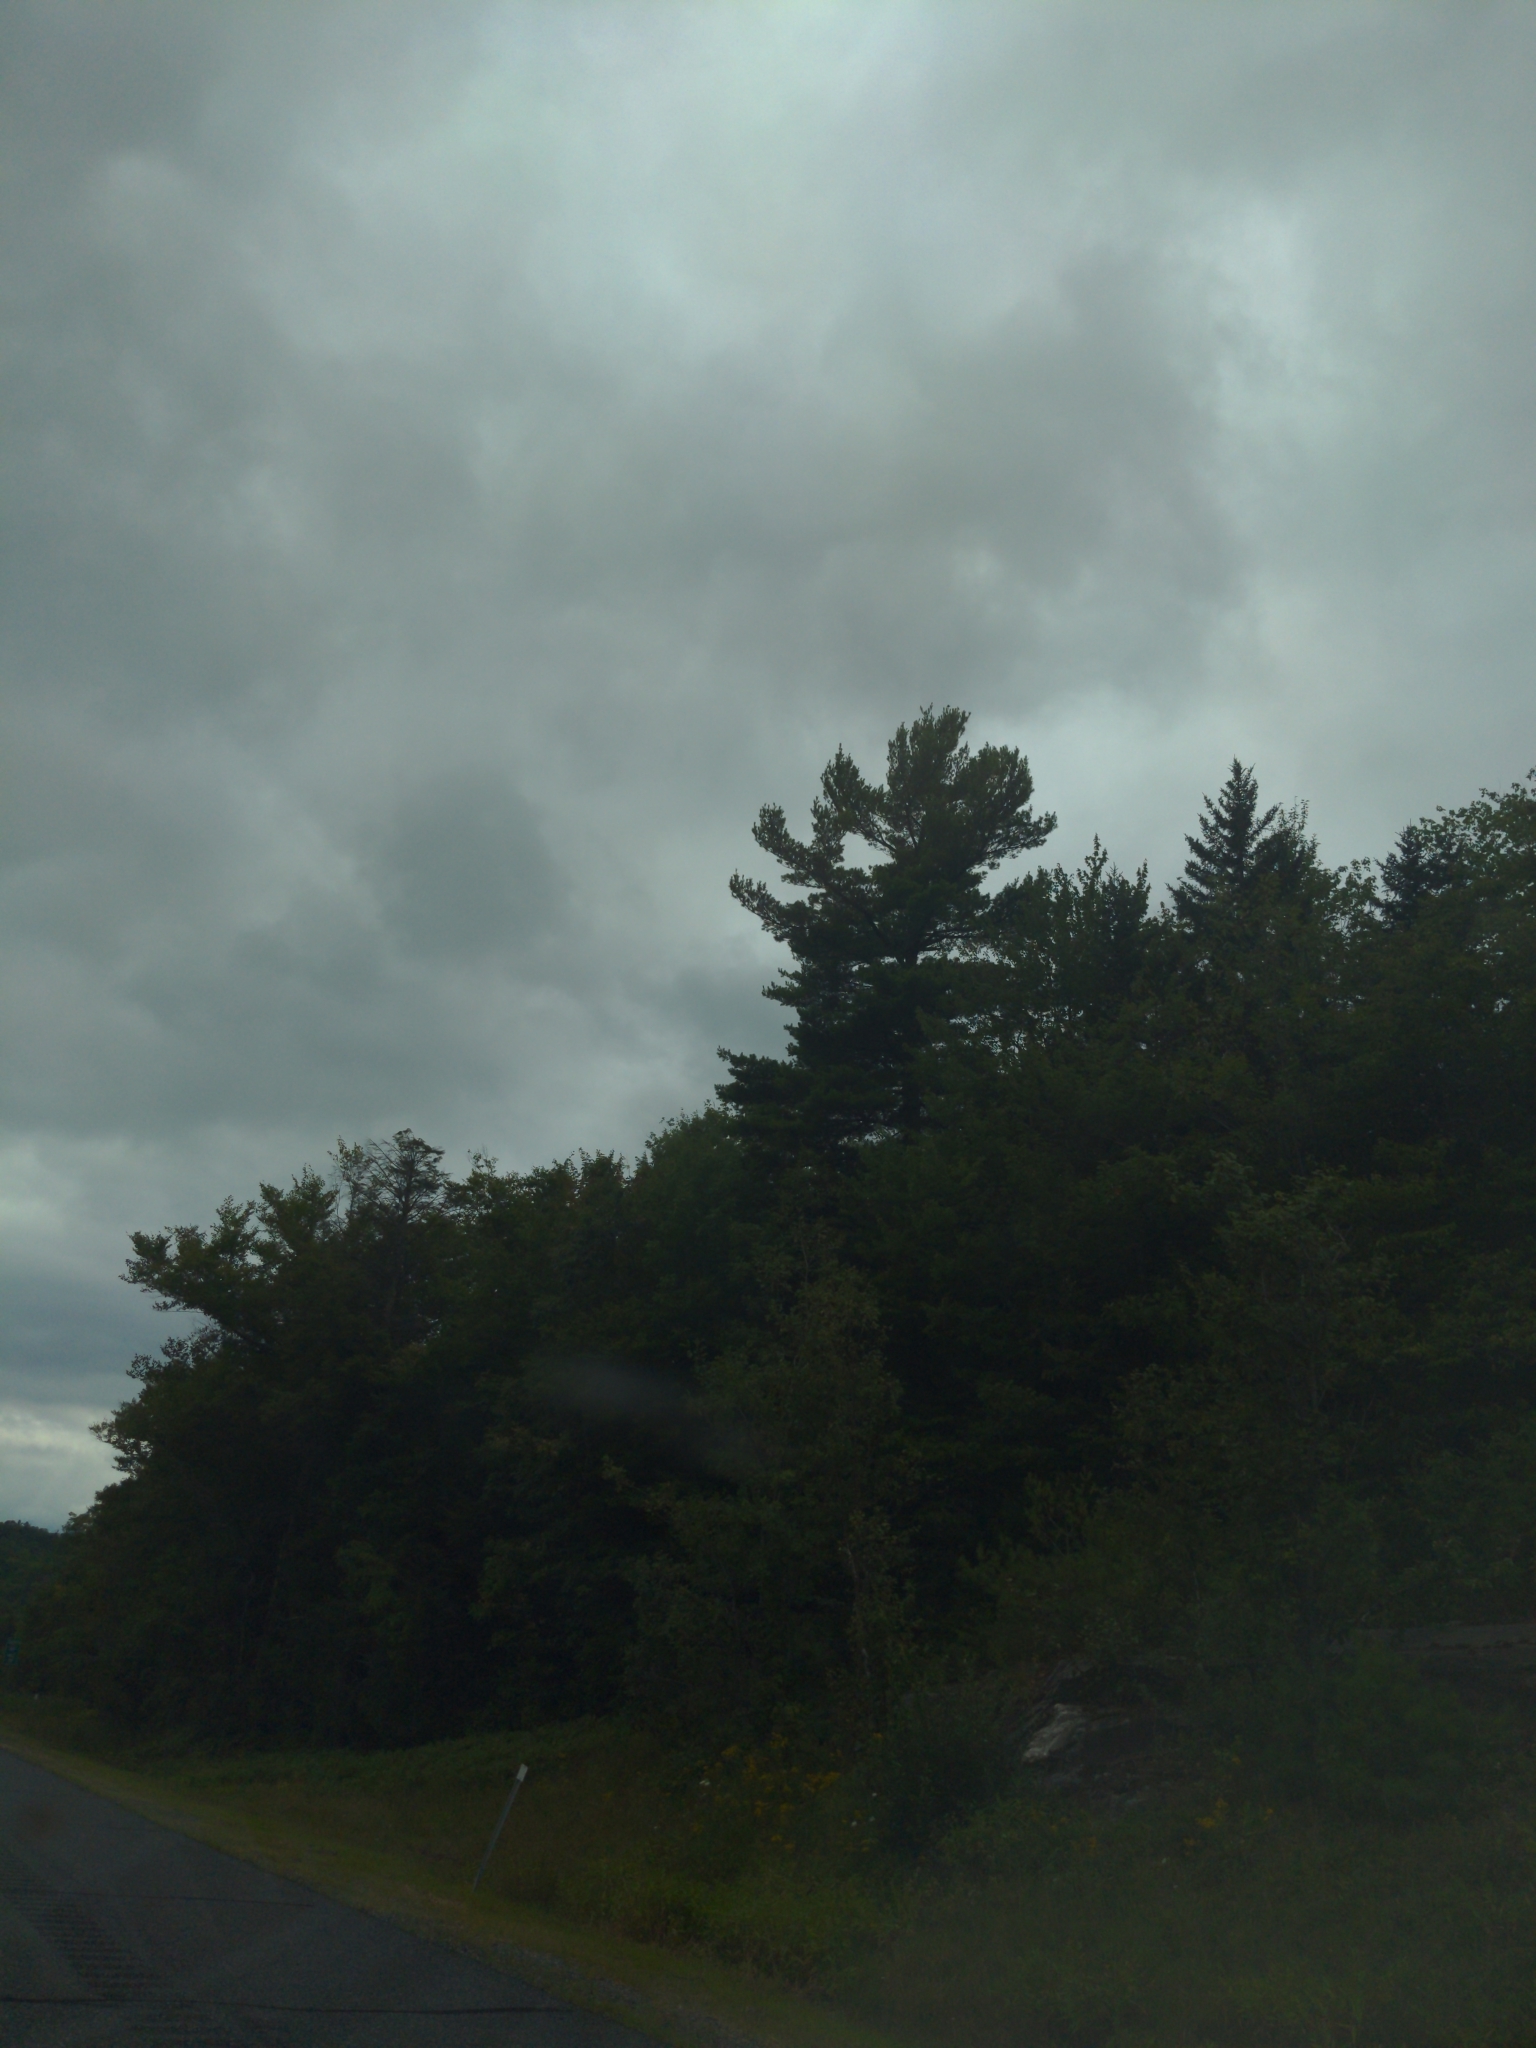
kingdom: Plantae
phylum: Tracheophyta
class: Pinopsida
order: Pinales
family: Pinaceae
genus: Pinus
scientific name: Pinus strobus
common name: Weymouth pine
